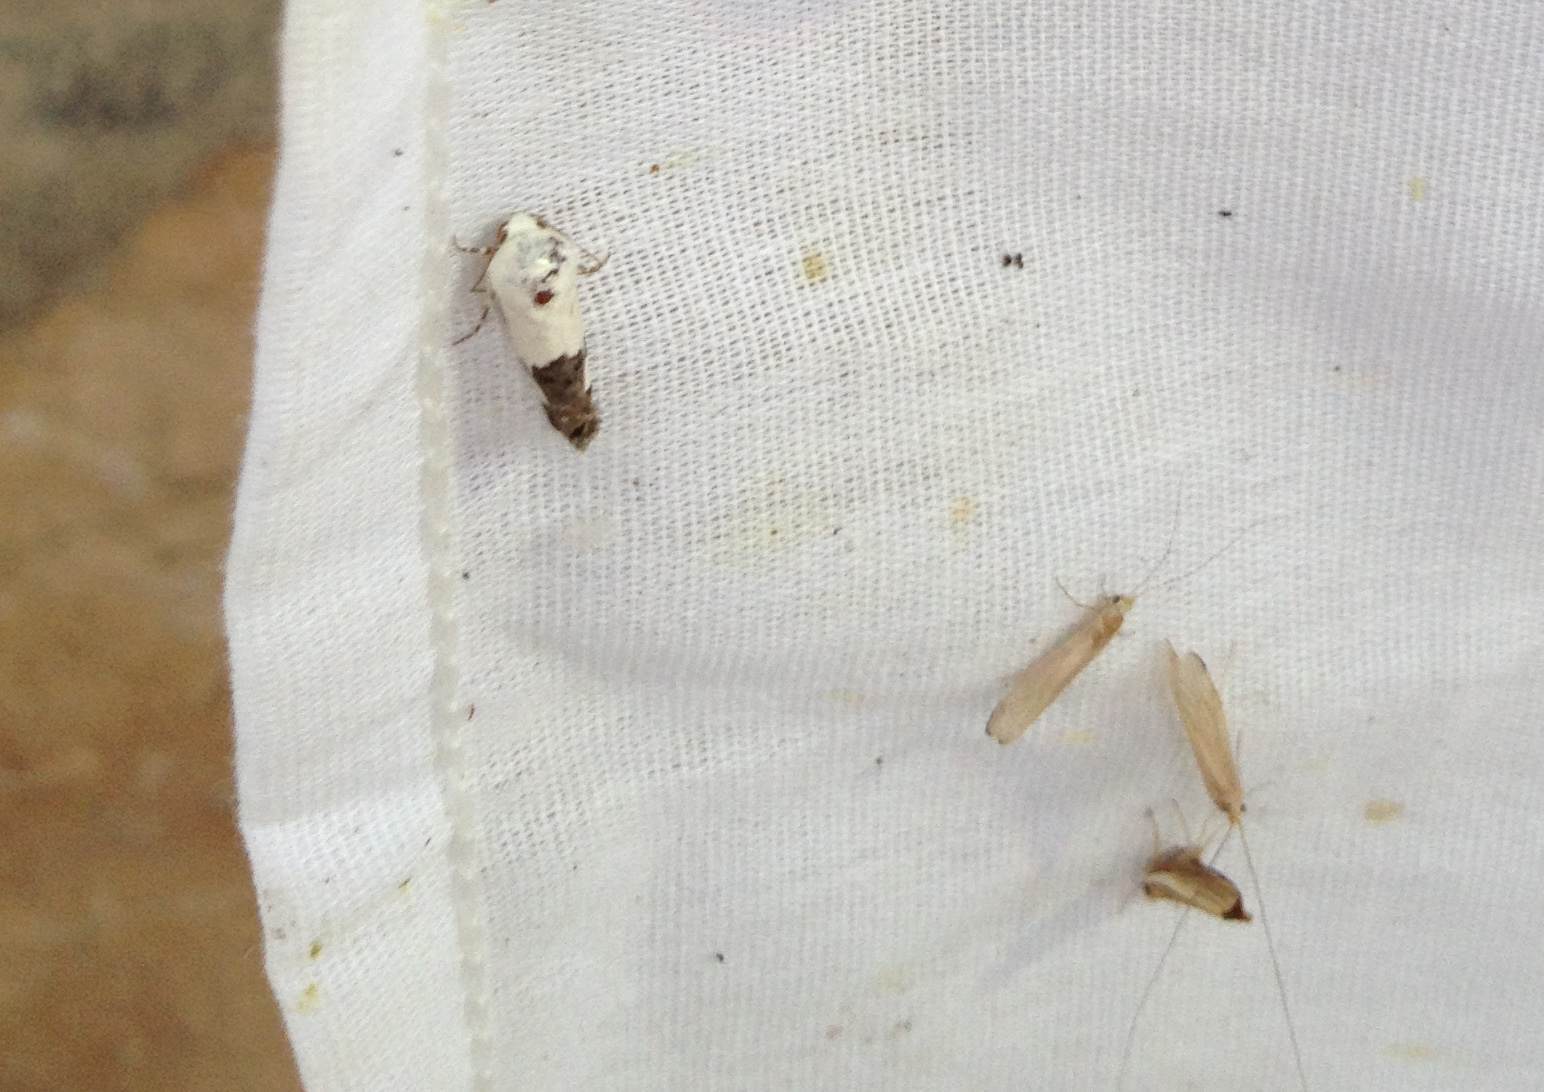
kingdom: Animalia
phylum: Arthropoda
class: Insecta
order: Lepidoptera
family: Noctuidae
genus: Acontia
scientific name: Acontia quadriplaga
